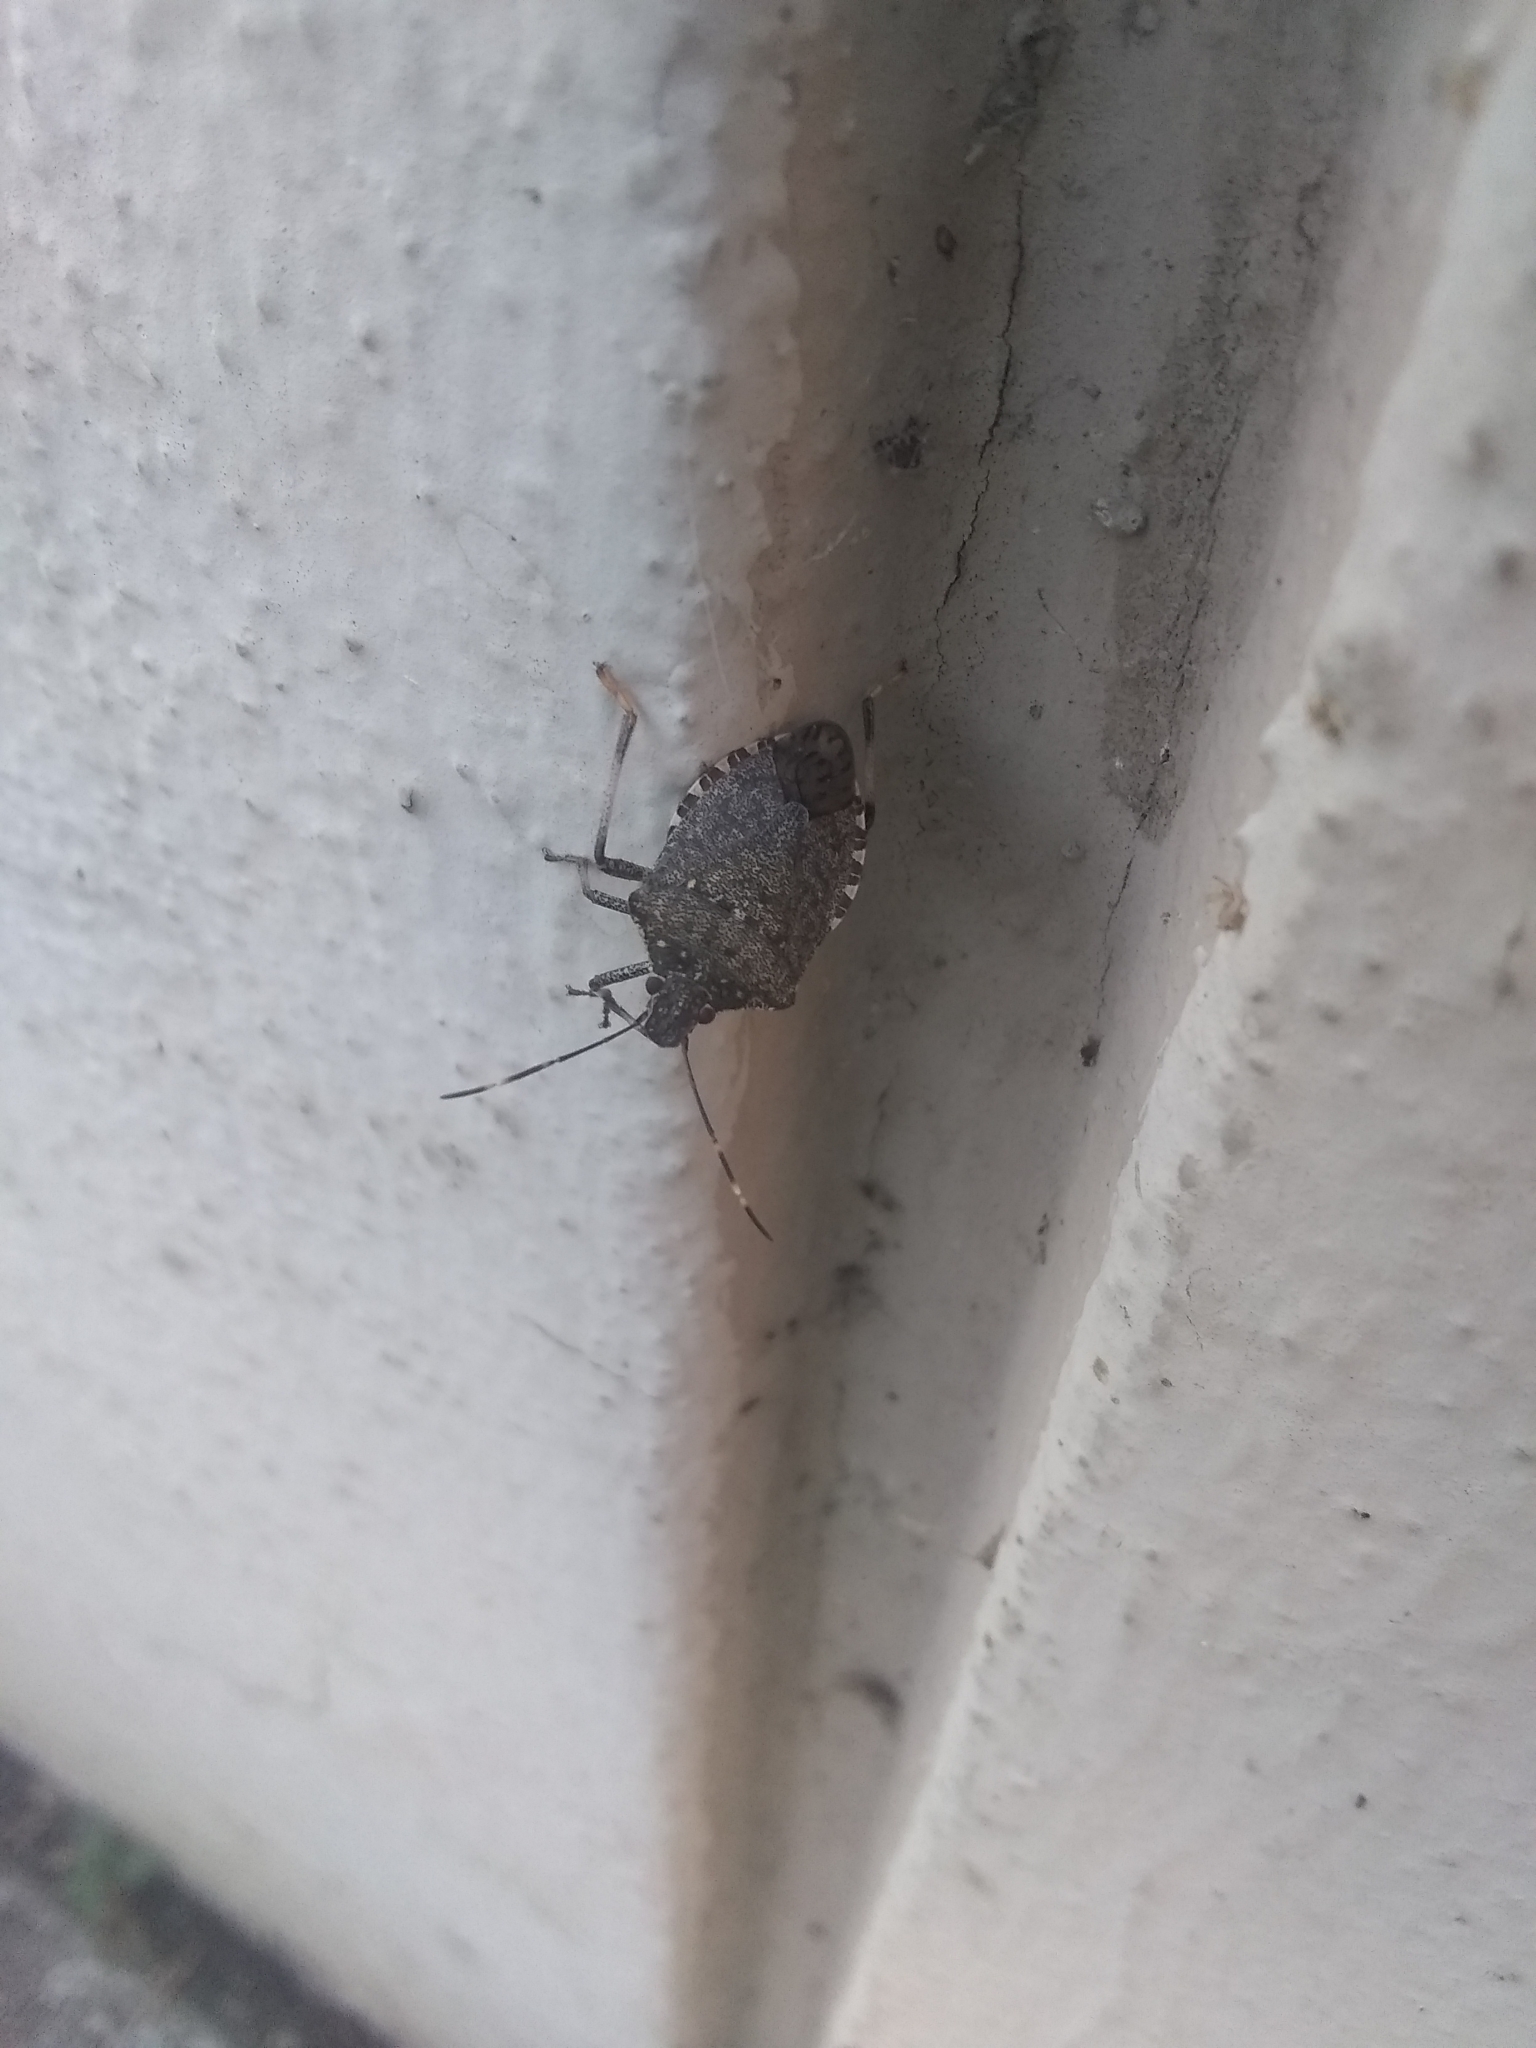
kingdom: Animalia
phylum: Arthropoda
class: Insecta
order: Hemiptera
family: Pentatomidae
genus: Halyomorpha
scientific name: Halyomorpha halys
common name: Brown marmorated stink bug
